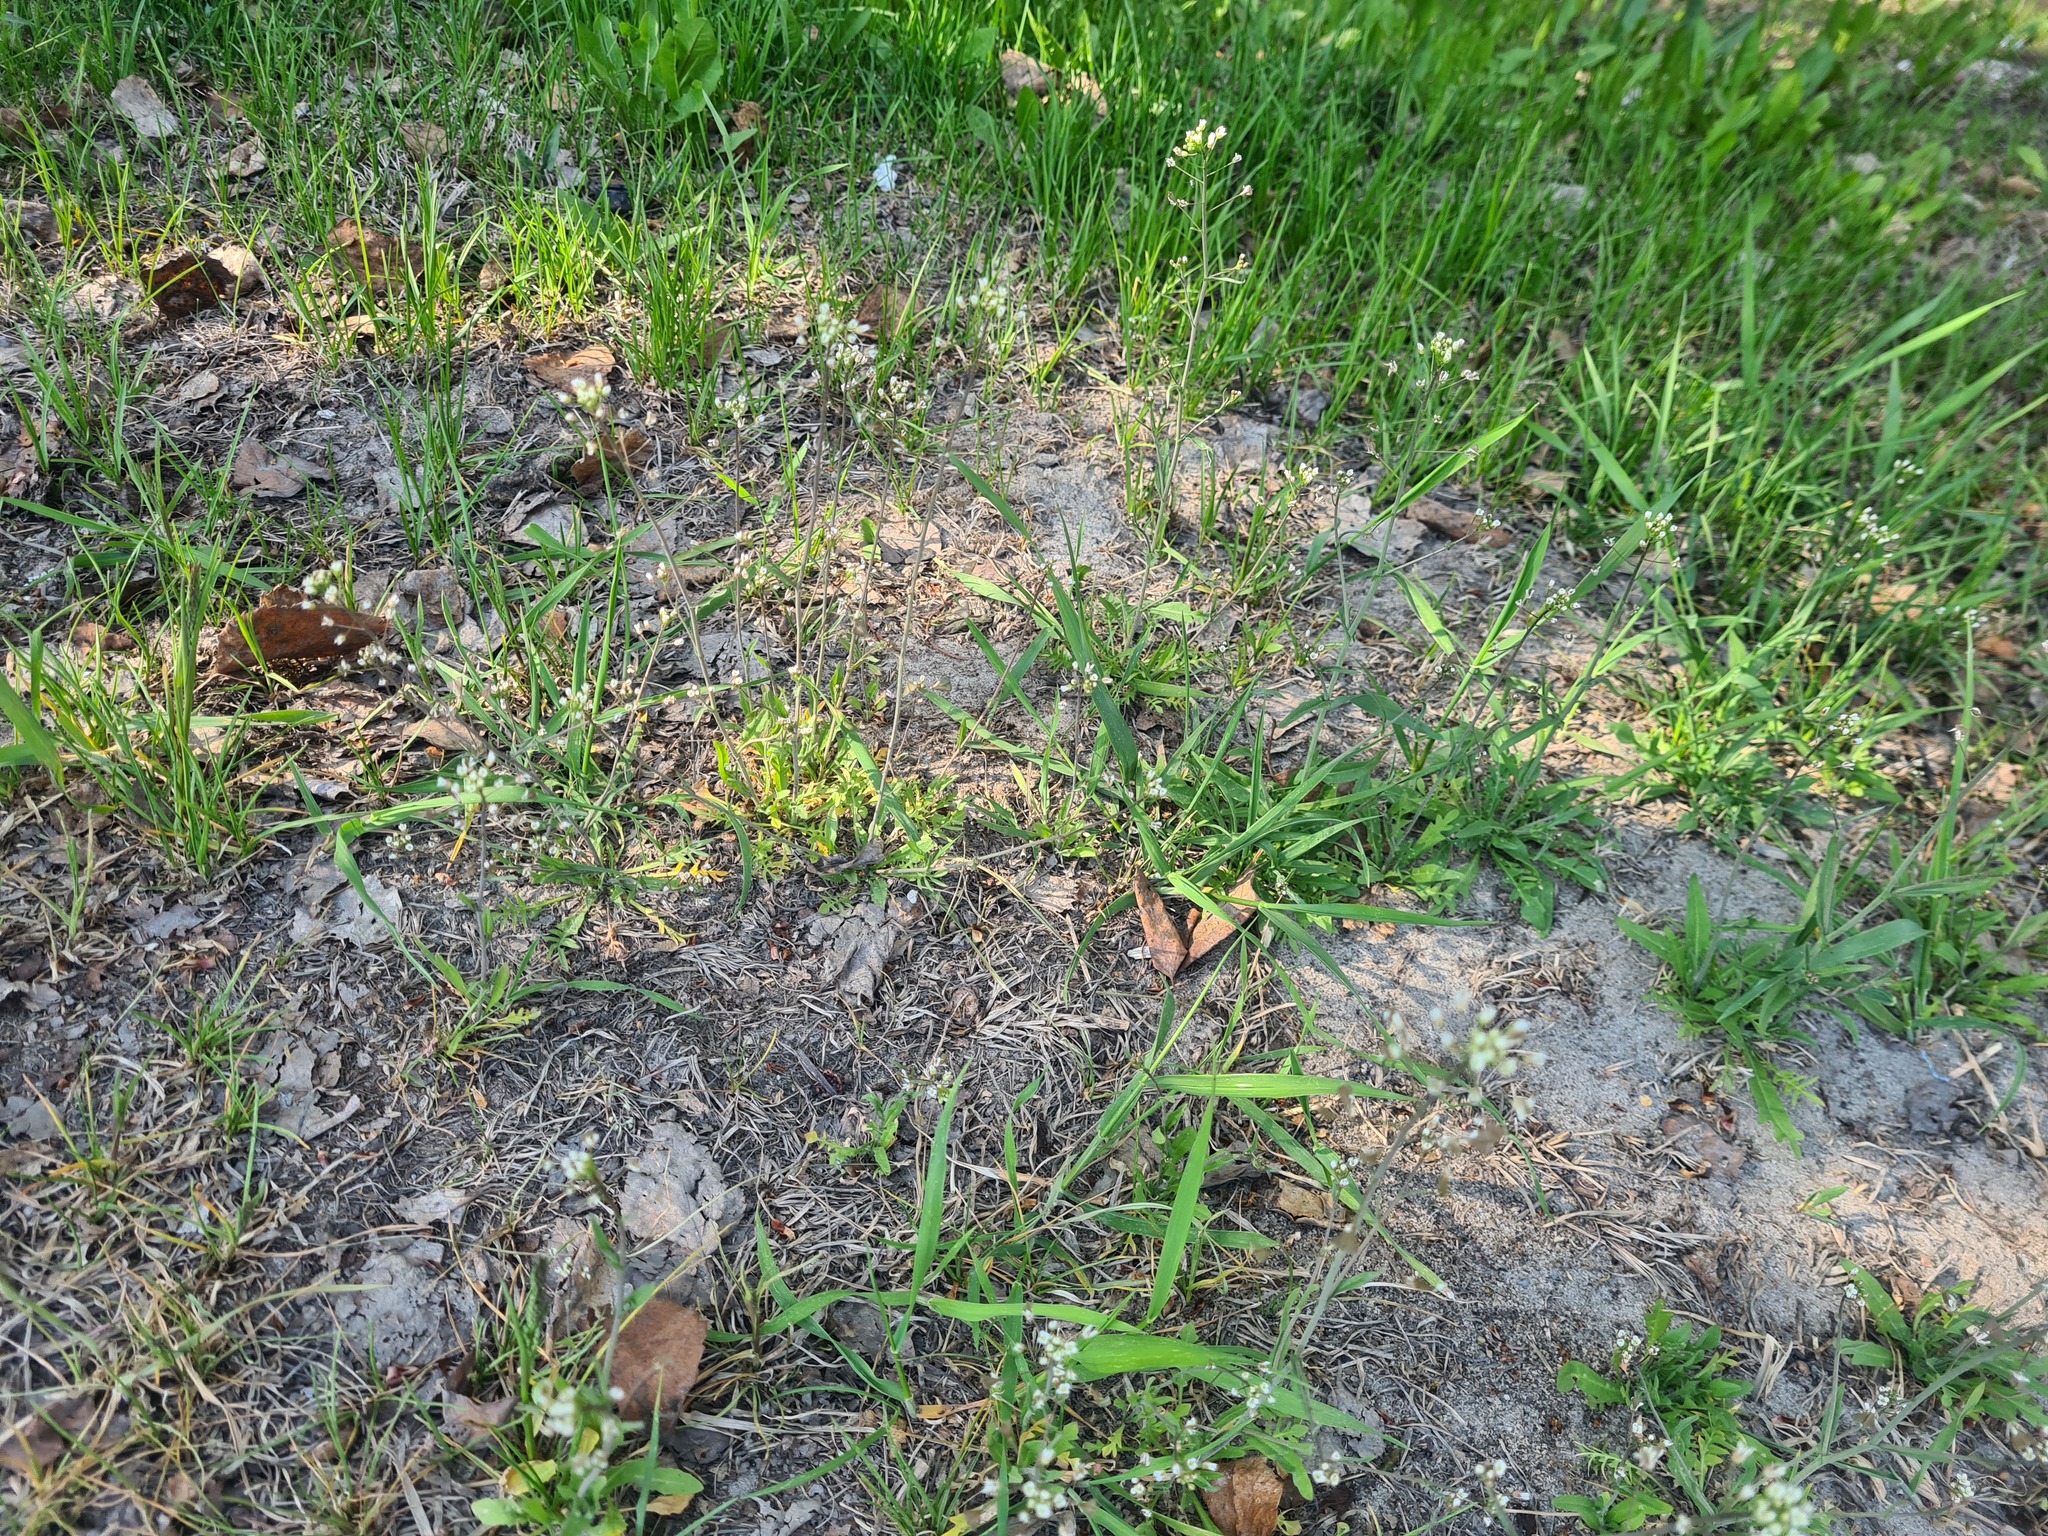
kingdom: Plantae
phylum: Tracheophyta
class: Magnoliopsida
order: Brassicales
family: Brassicaceae
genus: Capsella
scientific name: Capsella bursa-pastoris
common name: Shepherd's purse
